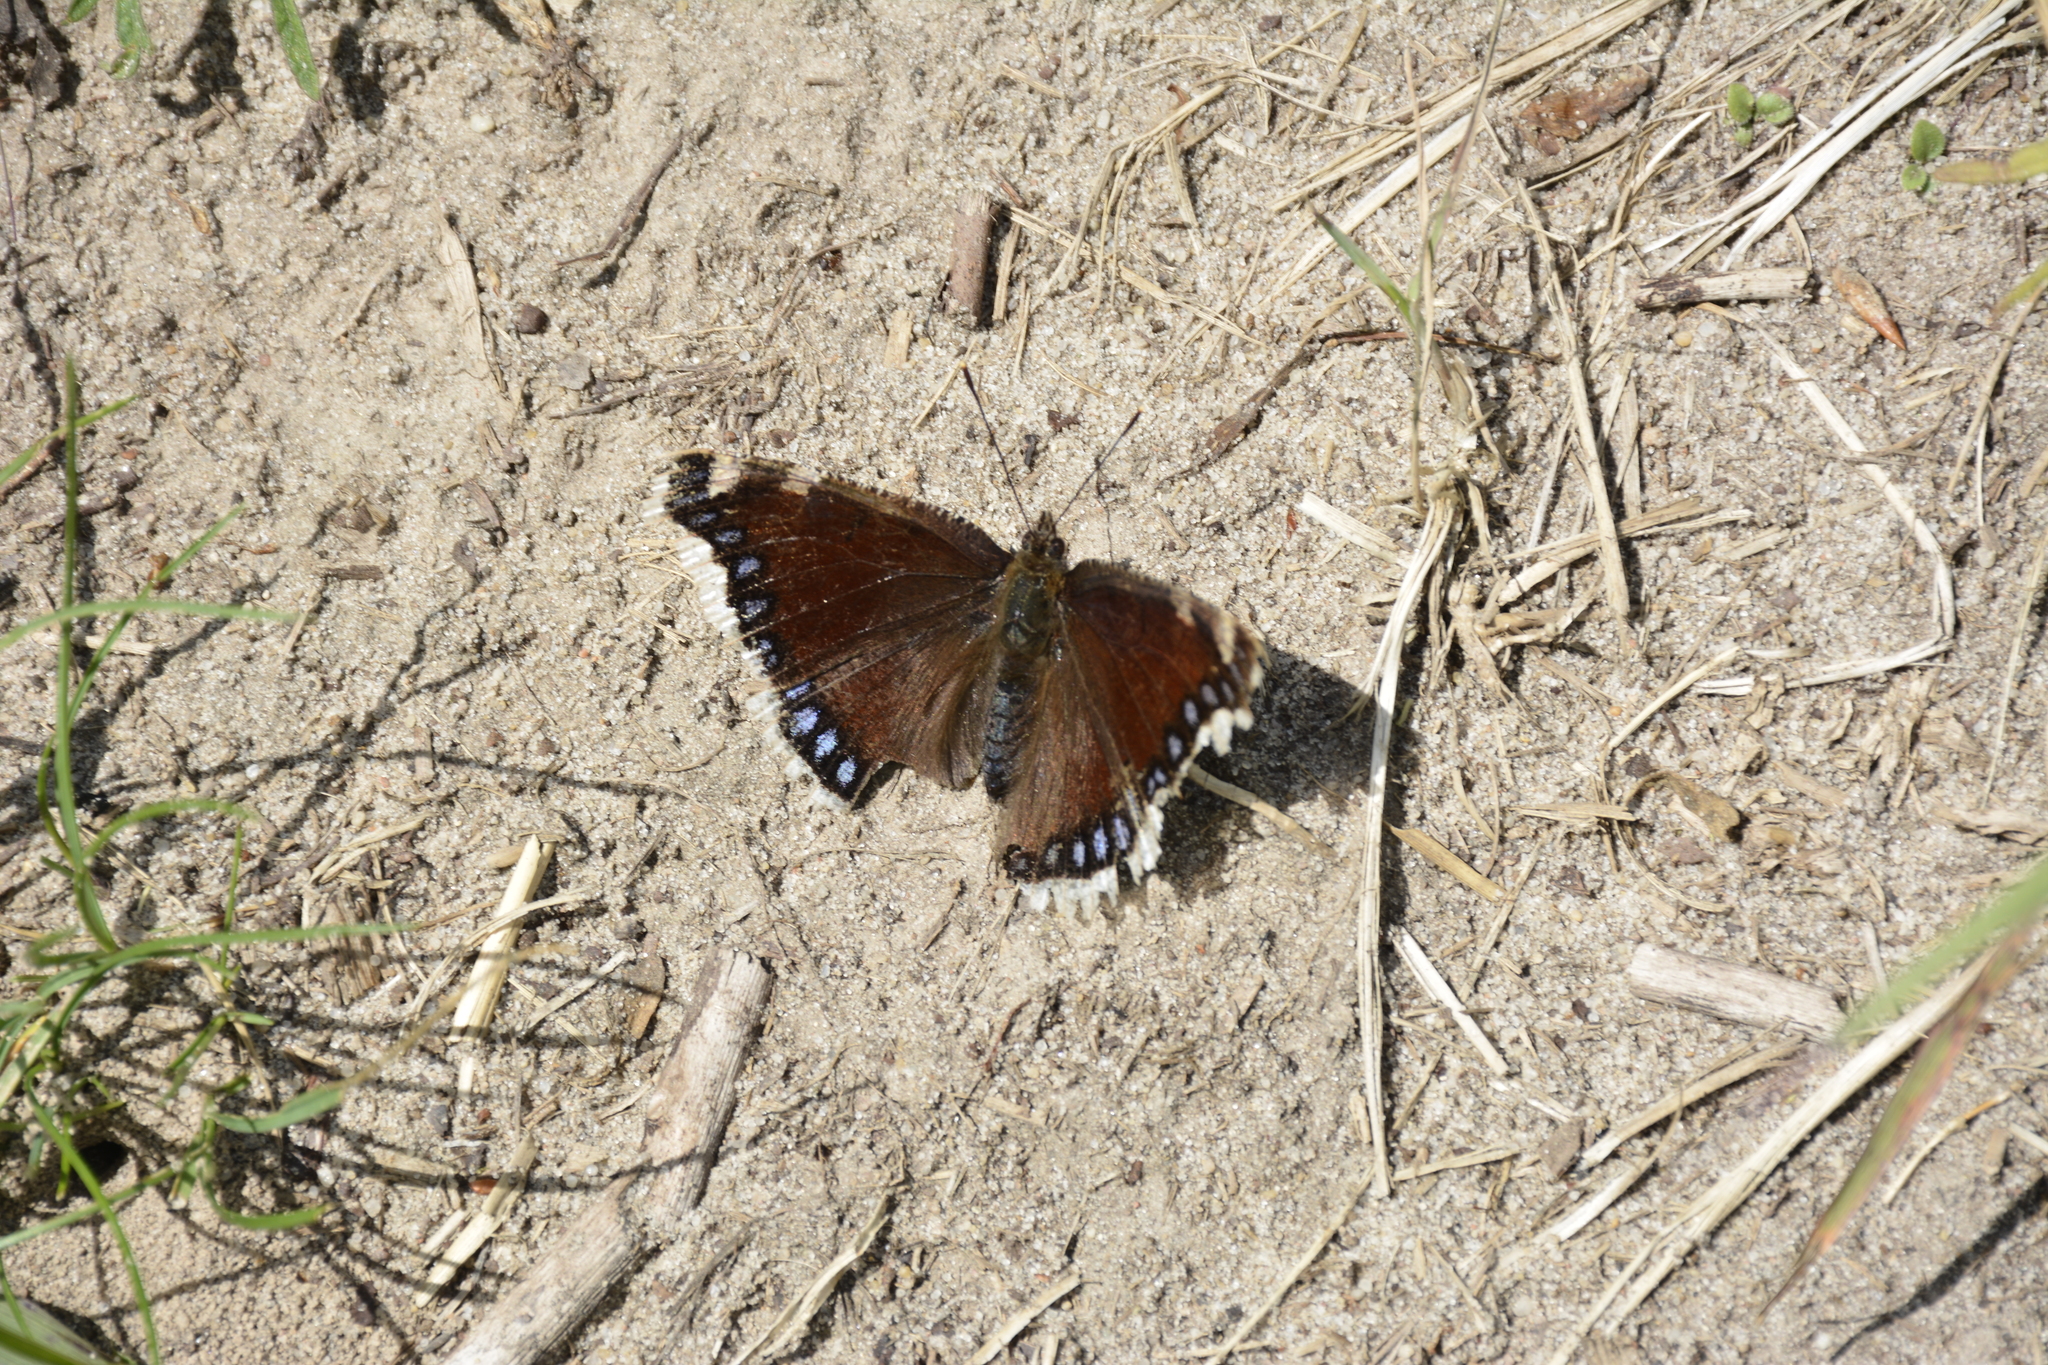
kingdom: Animalia
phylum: Arthropoda
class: Insecta
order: Lepidoptera
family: Nymphalidae
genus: Nymphalis
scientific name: Nymphalis antiopa
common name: Camberwell beauty
